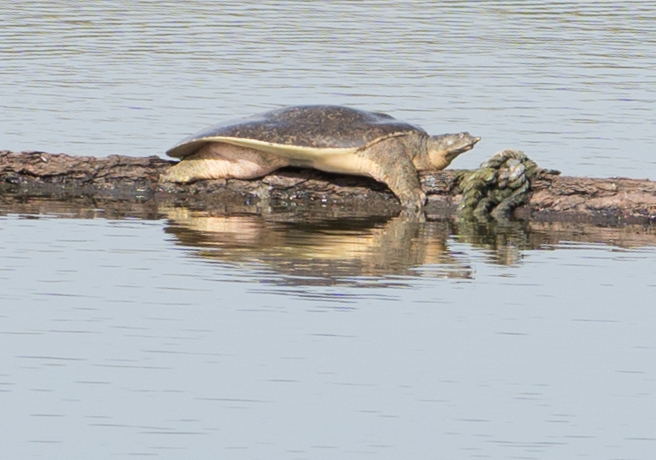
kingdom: Animalia
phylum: Chordata
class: Testudines
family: Trionychidae
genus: Apalone
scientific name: Apalone spinifera
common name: Spiny softshell turtle
